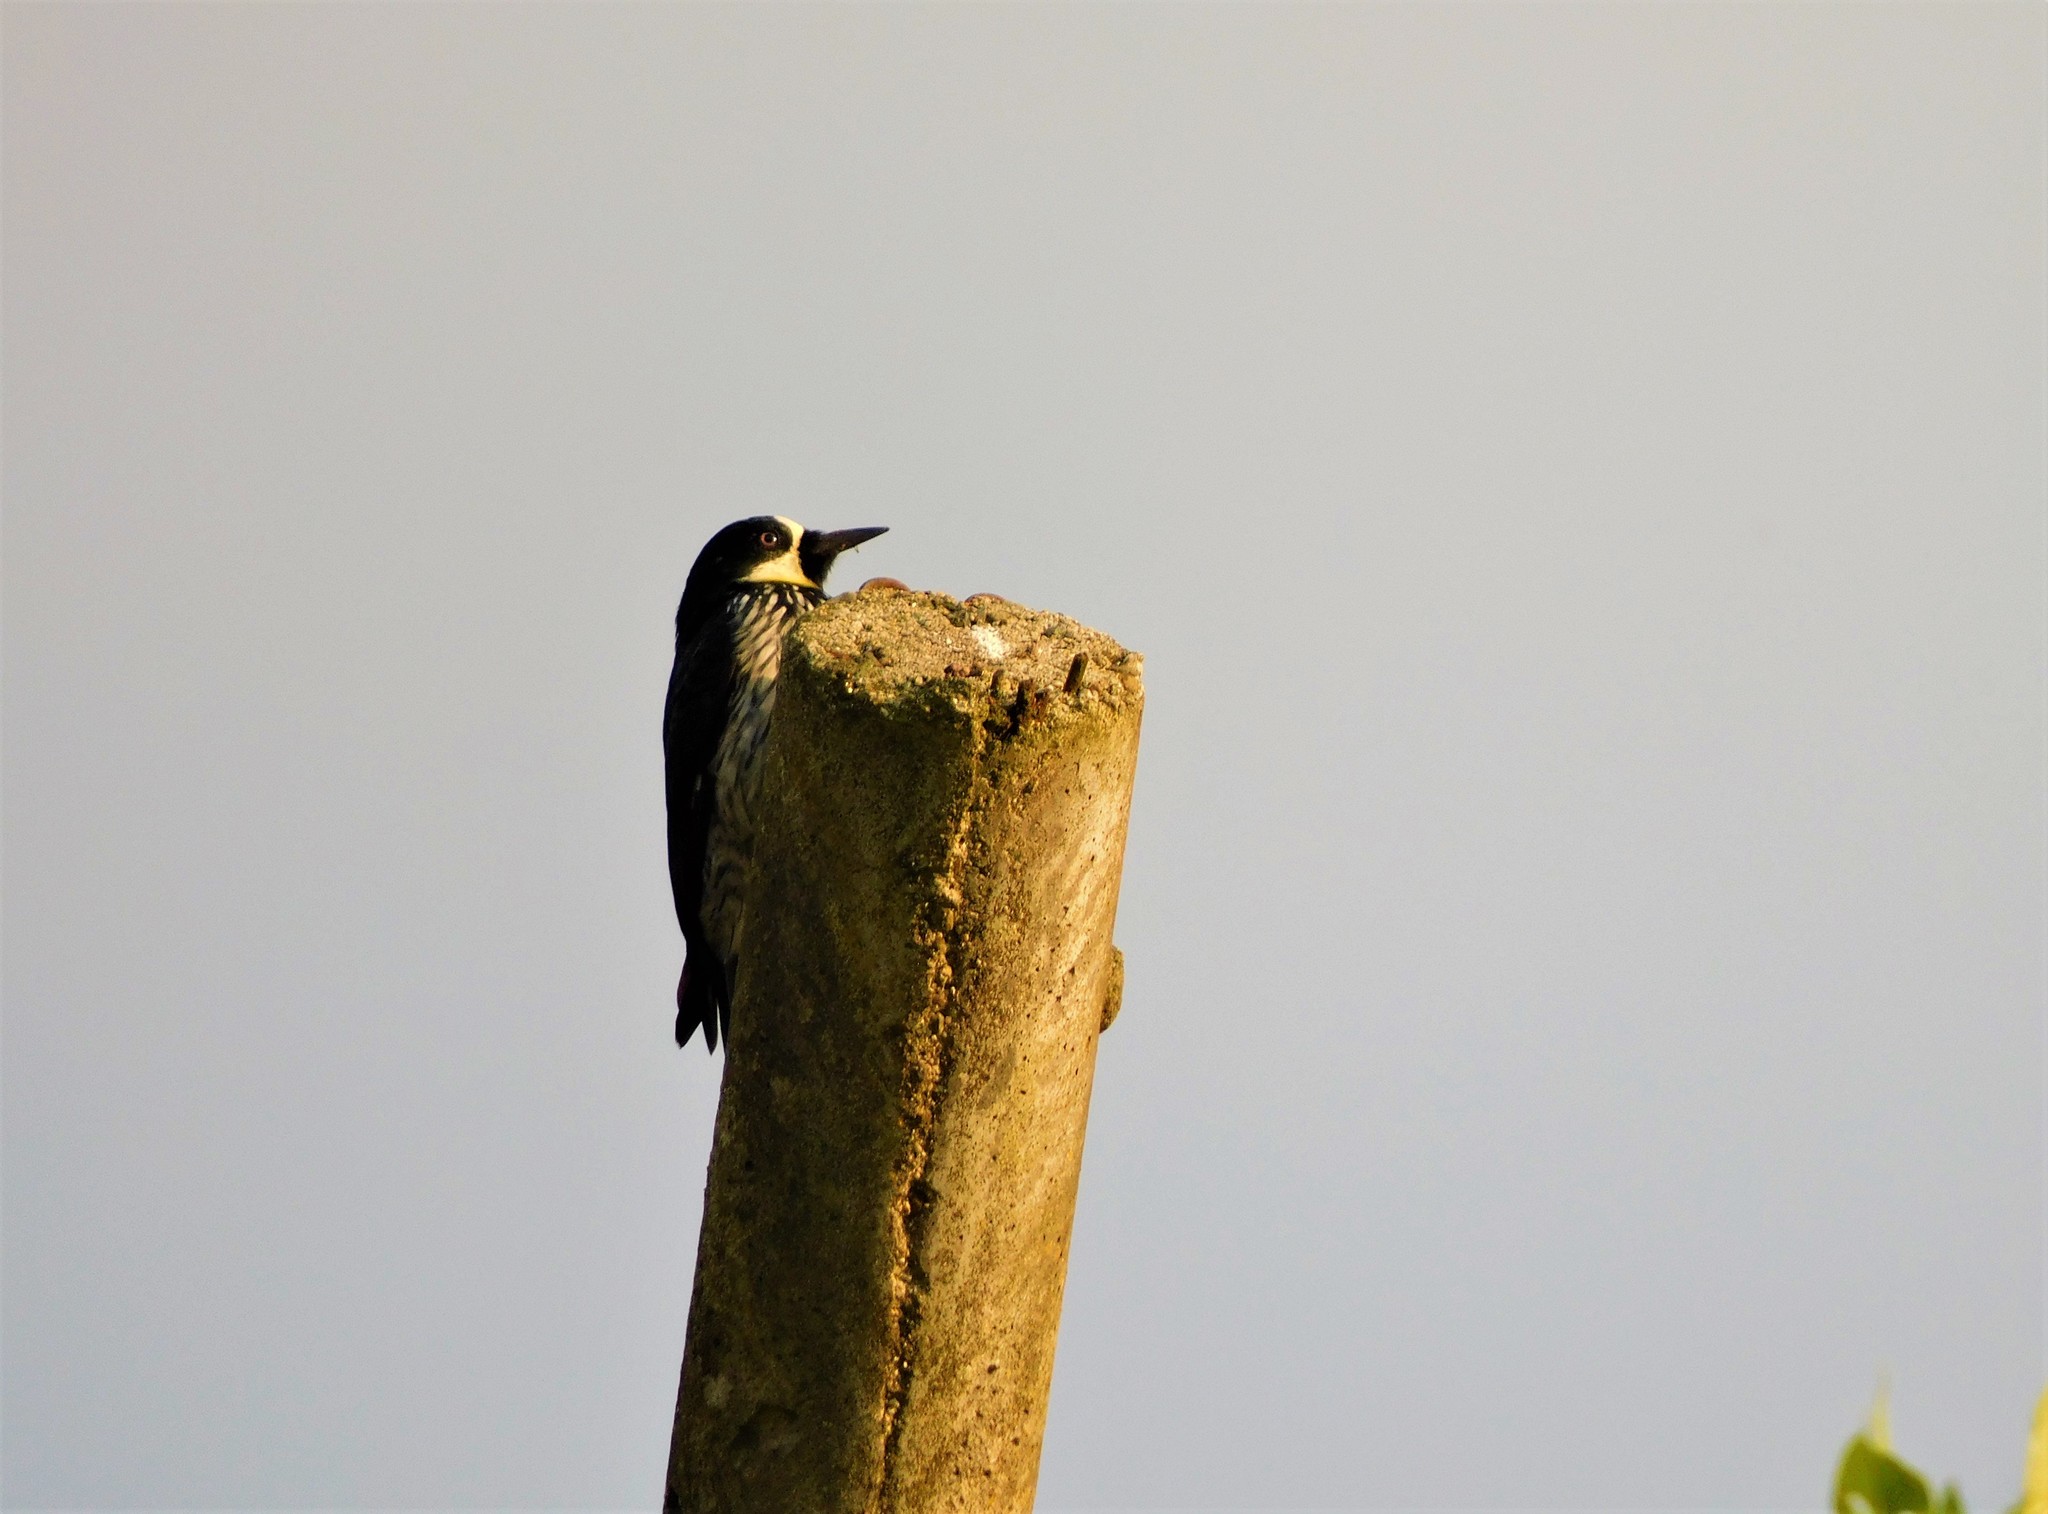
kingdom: Animalia
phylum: Chordata
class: Aves
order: Piciformes
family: Picidae
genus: Melanerpes
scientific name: Melanerpes formicivorus
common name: Acorn woodpecker
